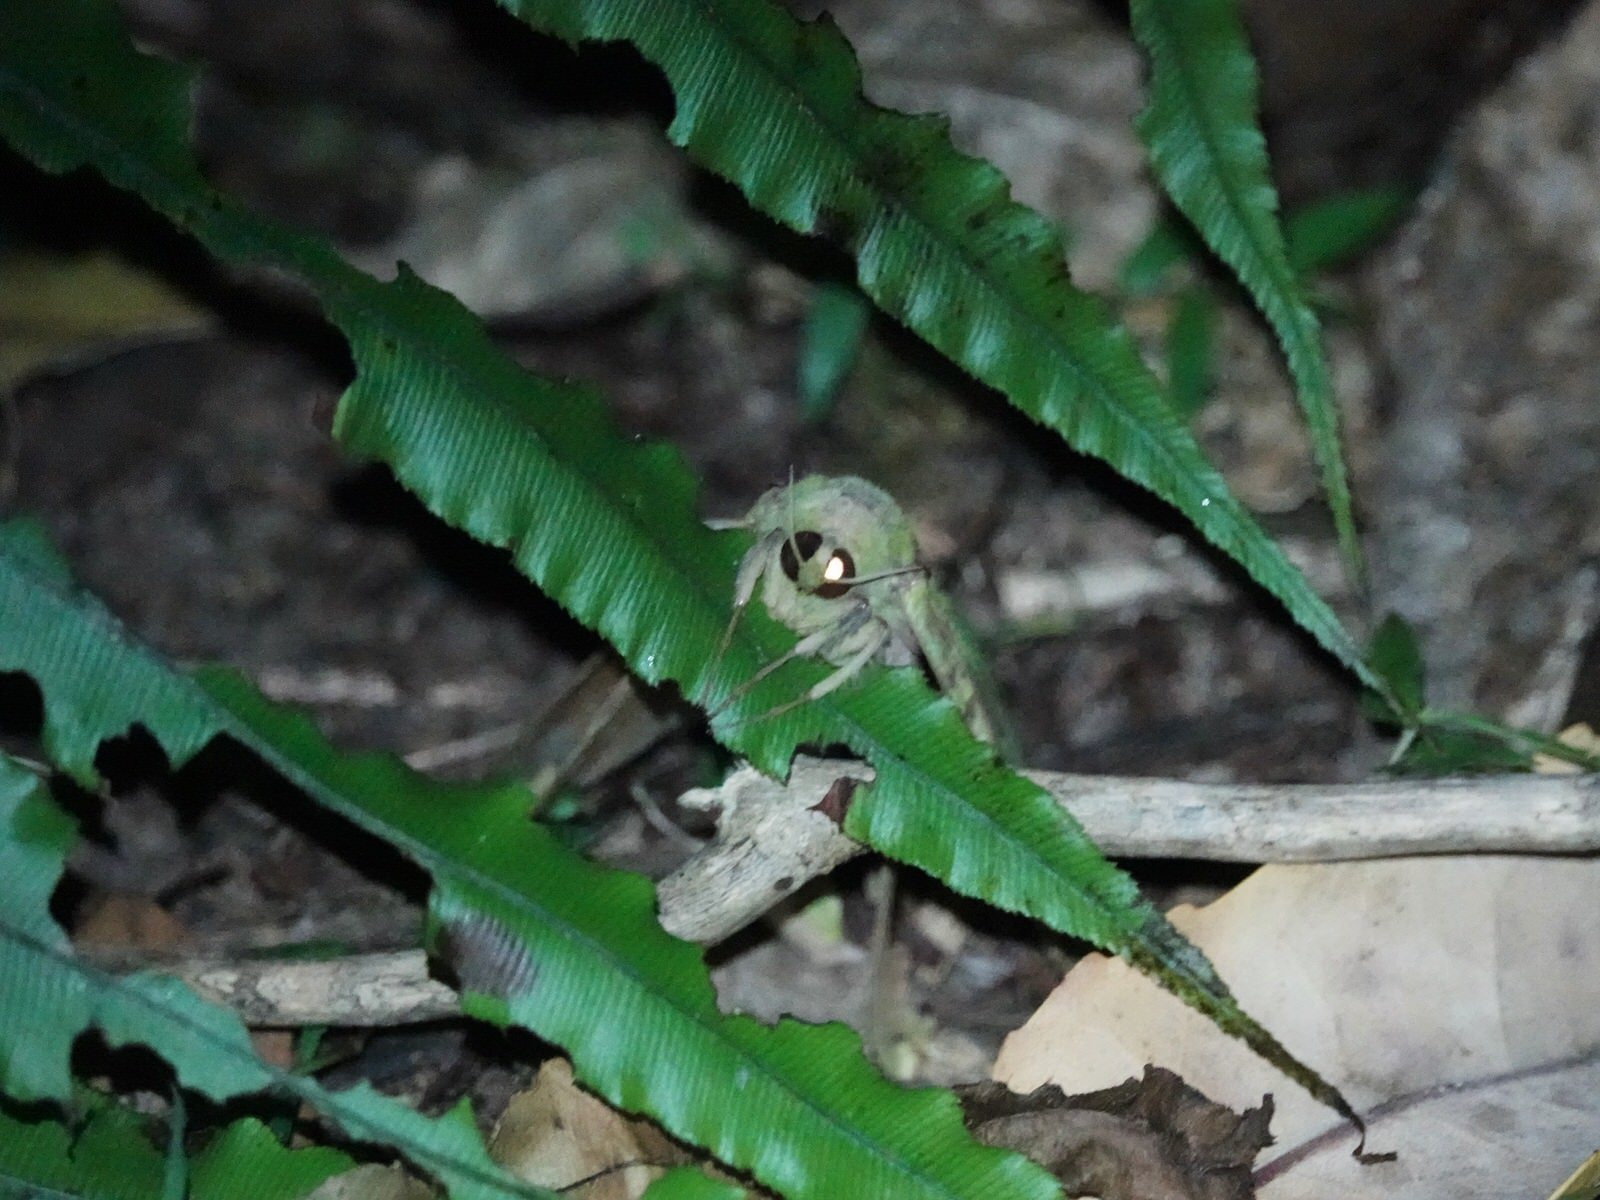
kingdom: Animalia
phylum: Arthropoda
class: Insecta
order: Lepidoptera
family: Hepialidae
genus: Aenetus
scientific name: Aenetus virescens
